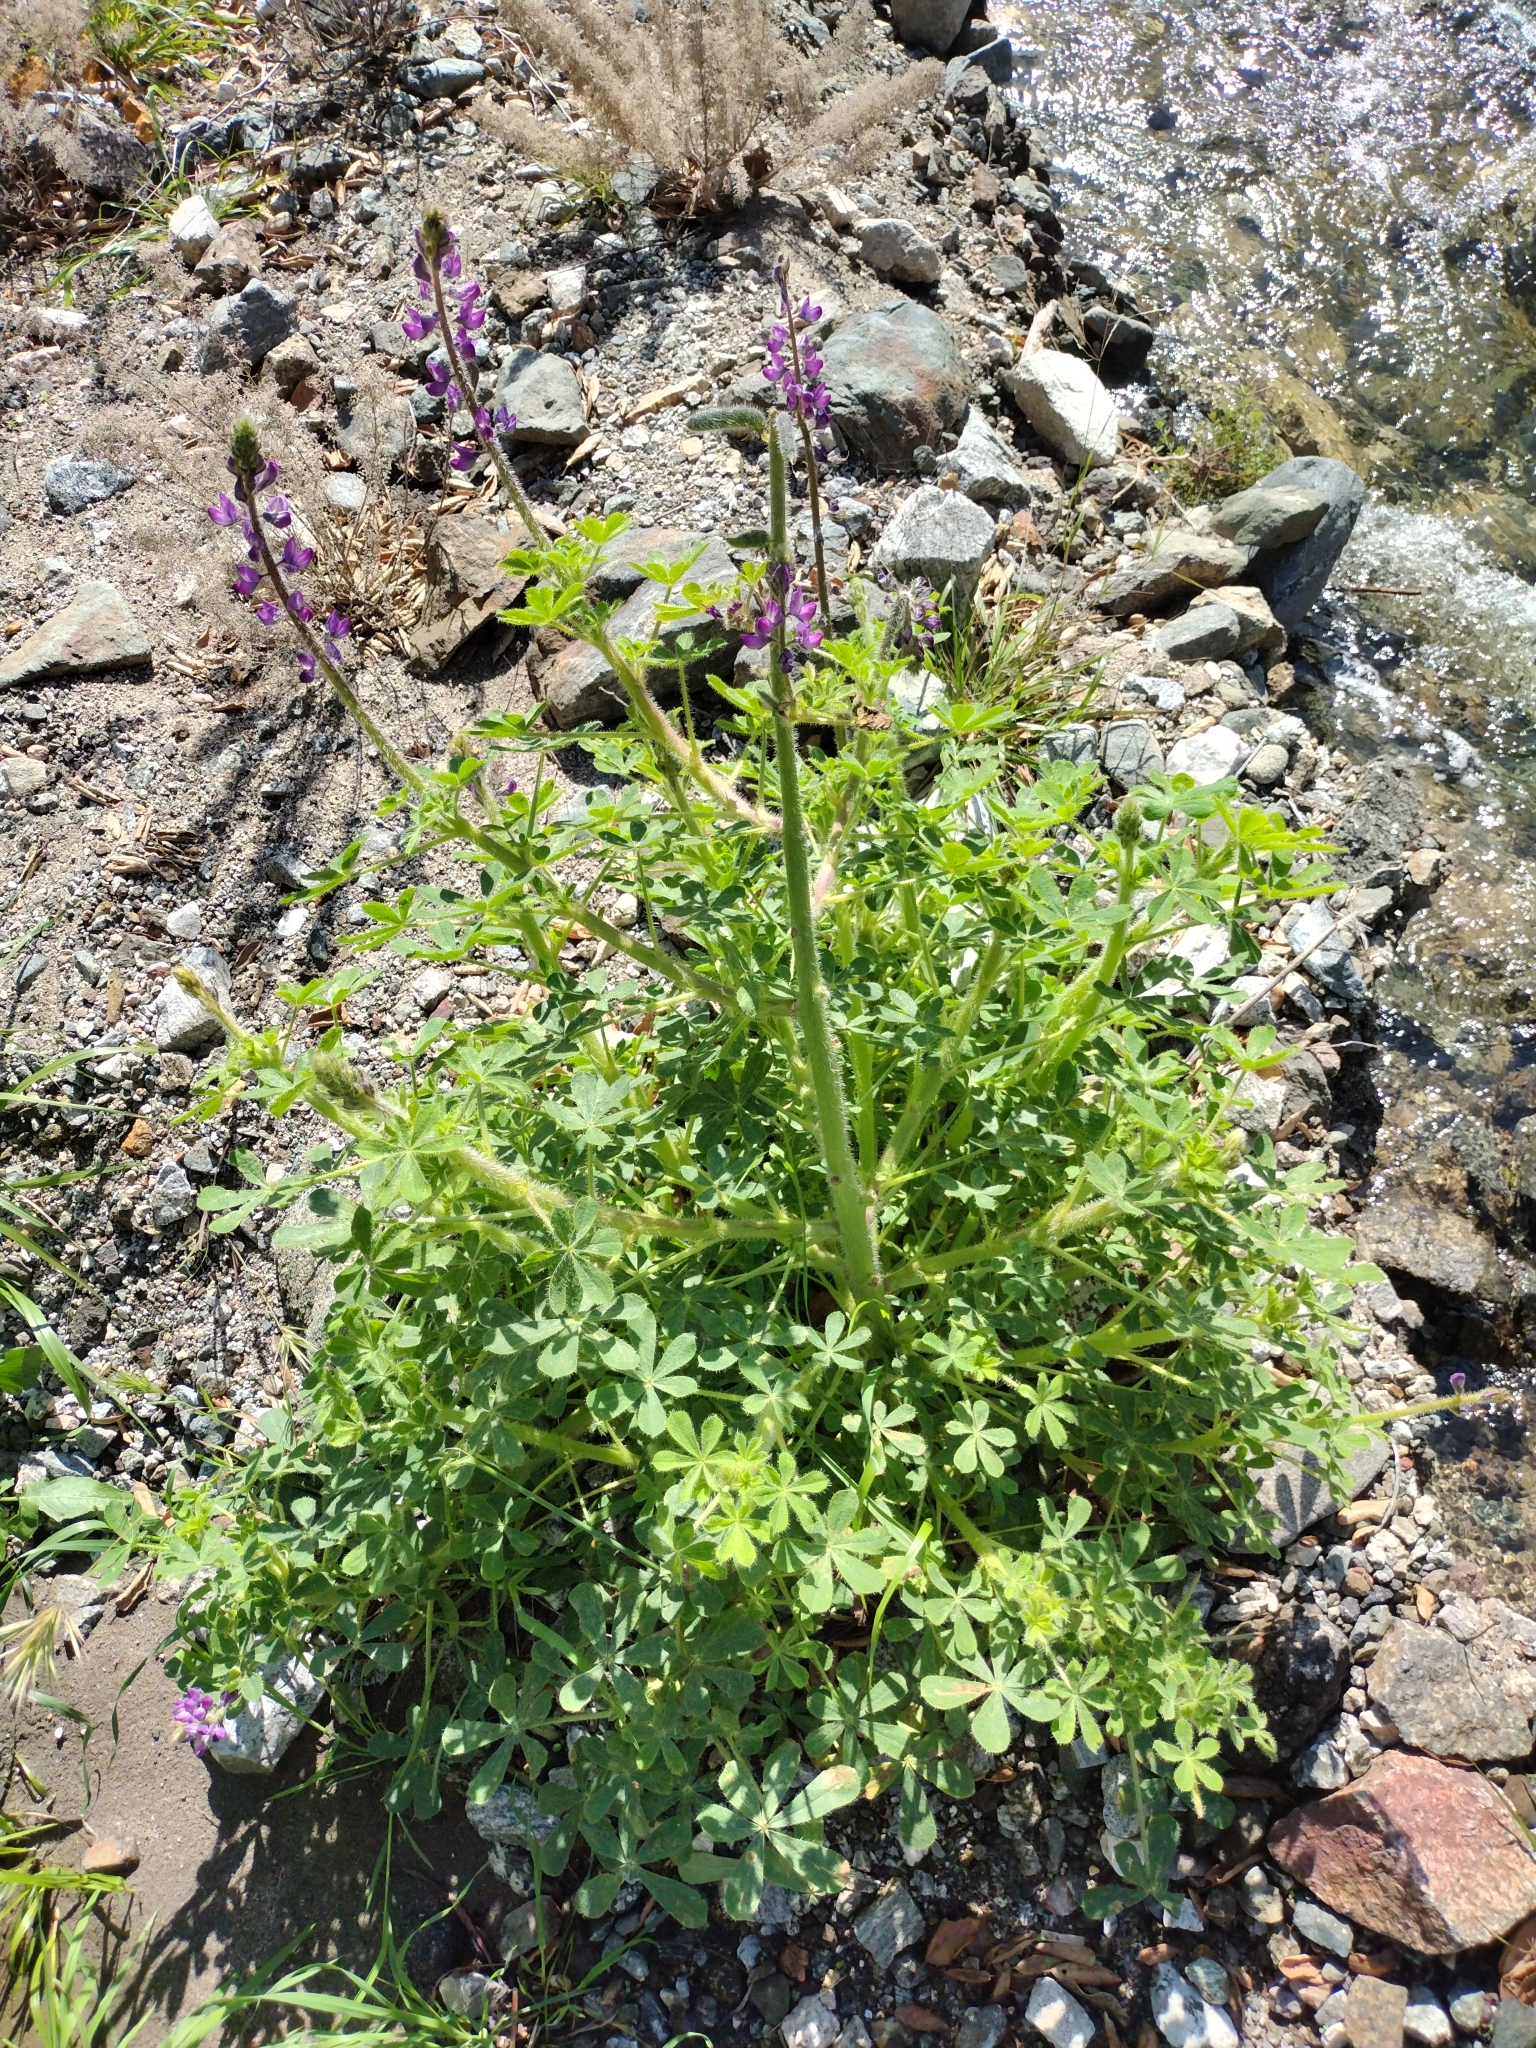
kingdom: Plantae
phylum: Tracheophyta
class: Magnoliopsida
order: Fabales
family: Fabaceae
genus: Lupinus
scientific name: Lupinus hirsutissimus
